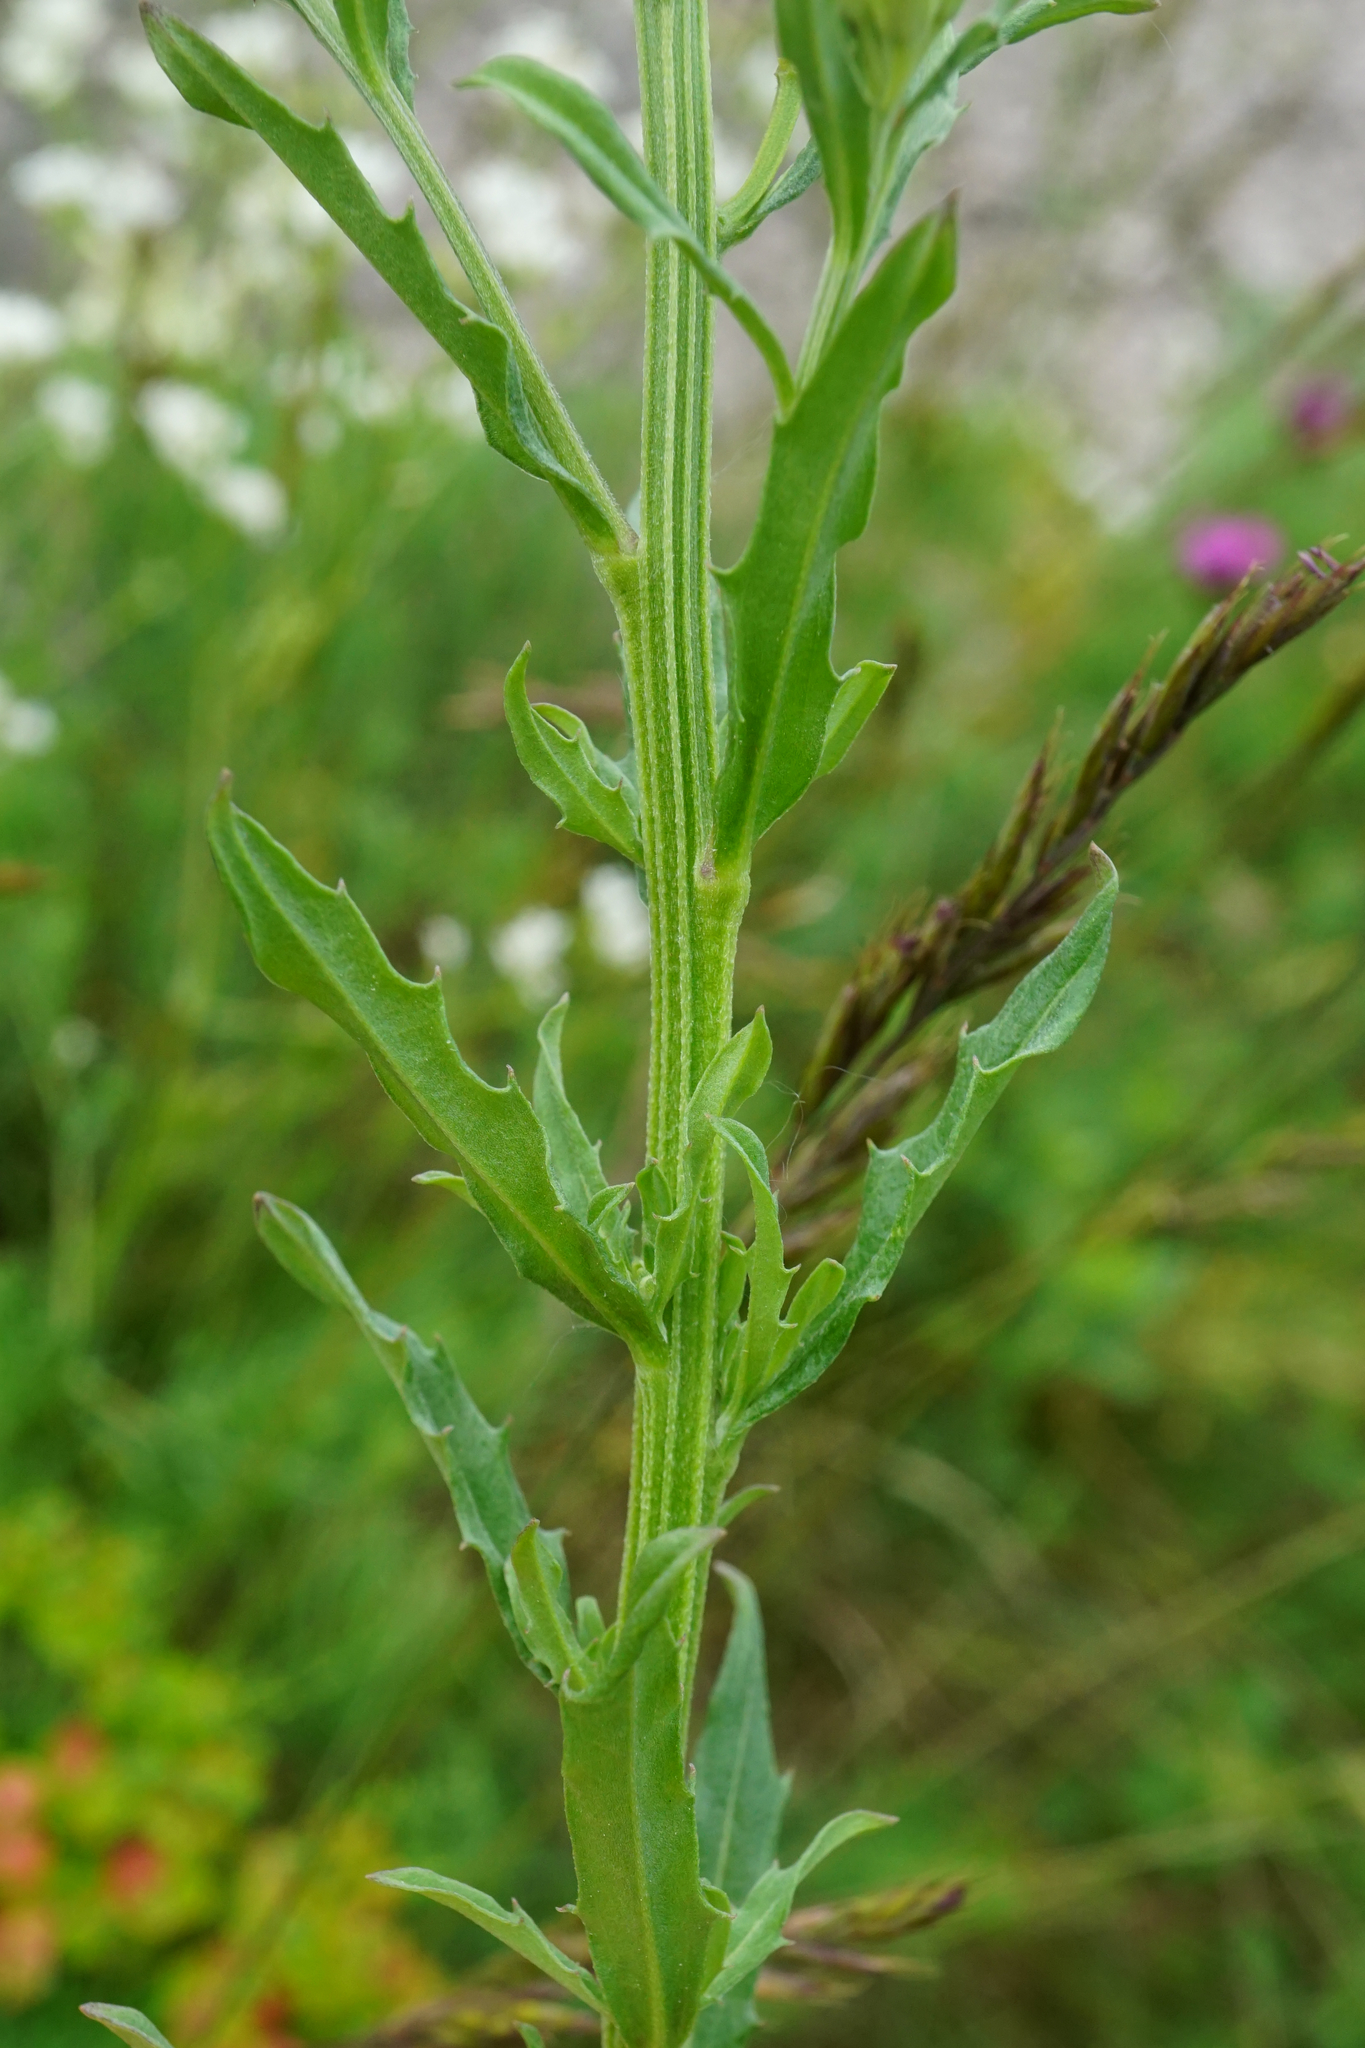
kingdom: Plantae
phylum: Tracheophyta
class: Magnoliopsida
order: Brassicales
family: Brassicaceae
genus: Erysimum
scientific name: Erysimum odoratum
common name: Smelly wallflower
